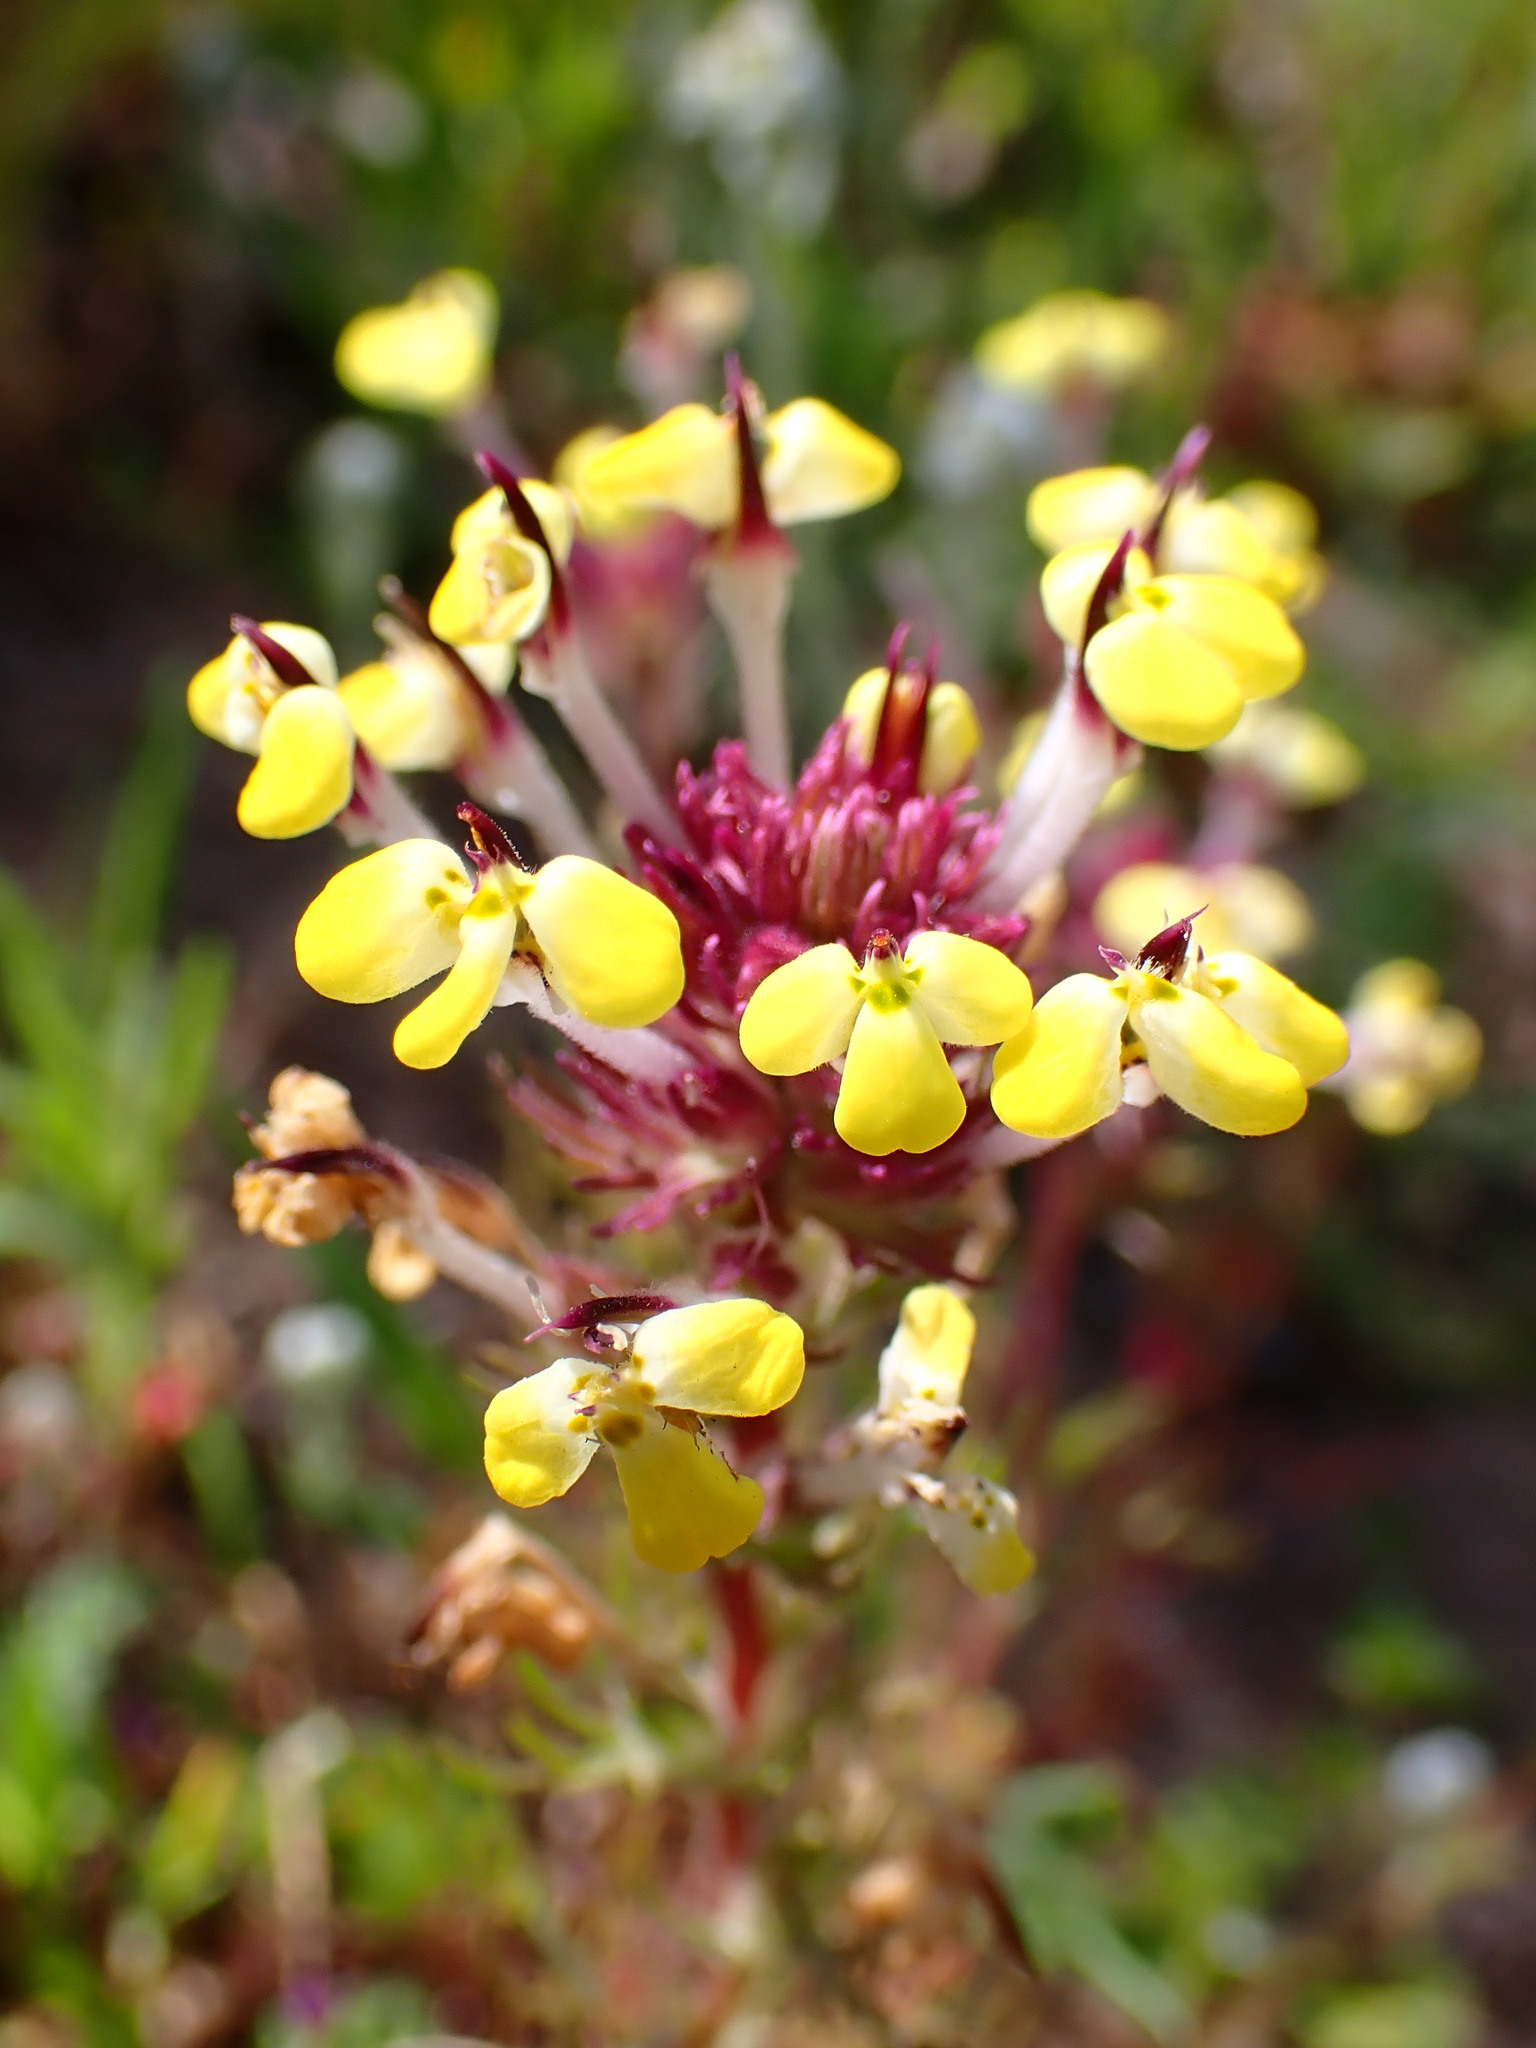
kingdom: Plantae
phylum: Tracheophyta
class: Magnoliopsida
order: Lamiales
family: Orobanchaceae
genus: Triphysaria
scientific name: Triphysaria eriantha
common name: Johnny-tuck
